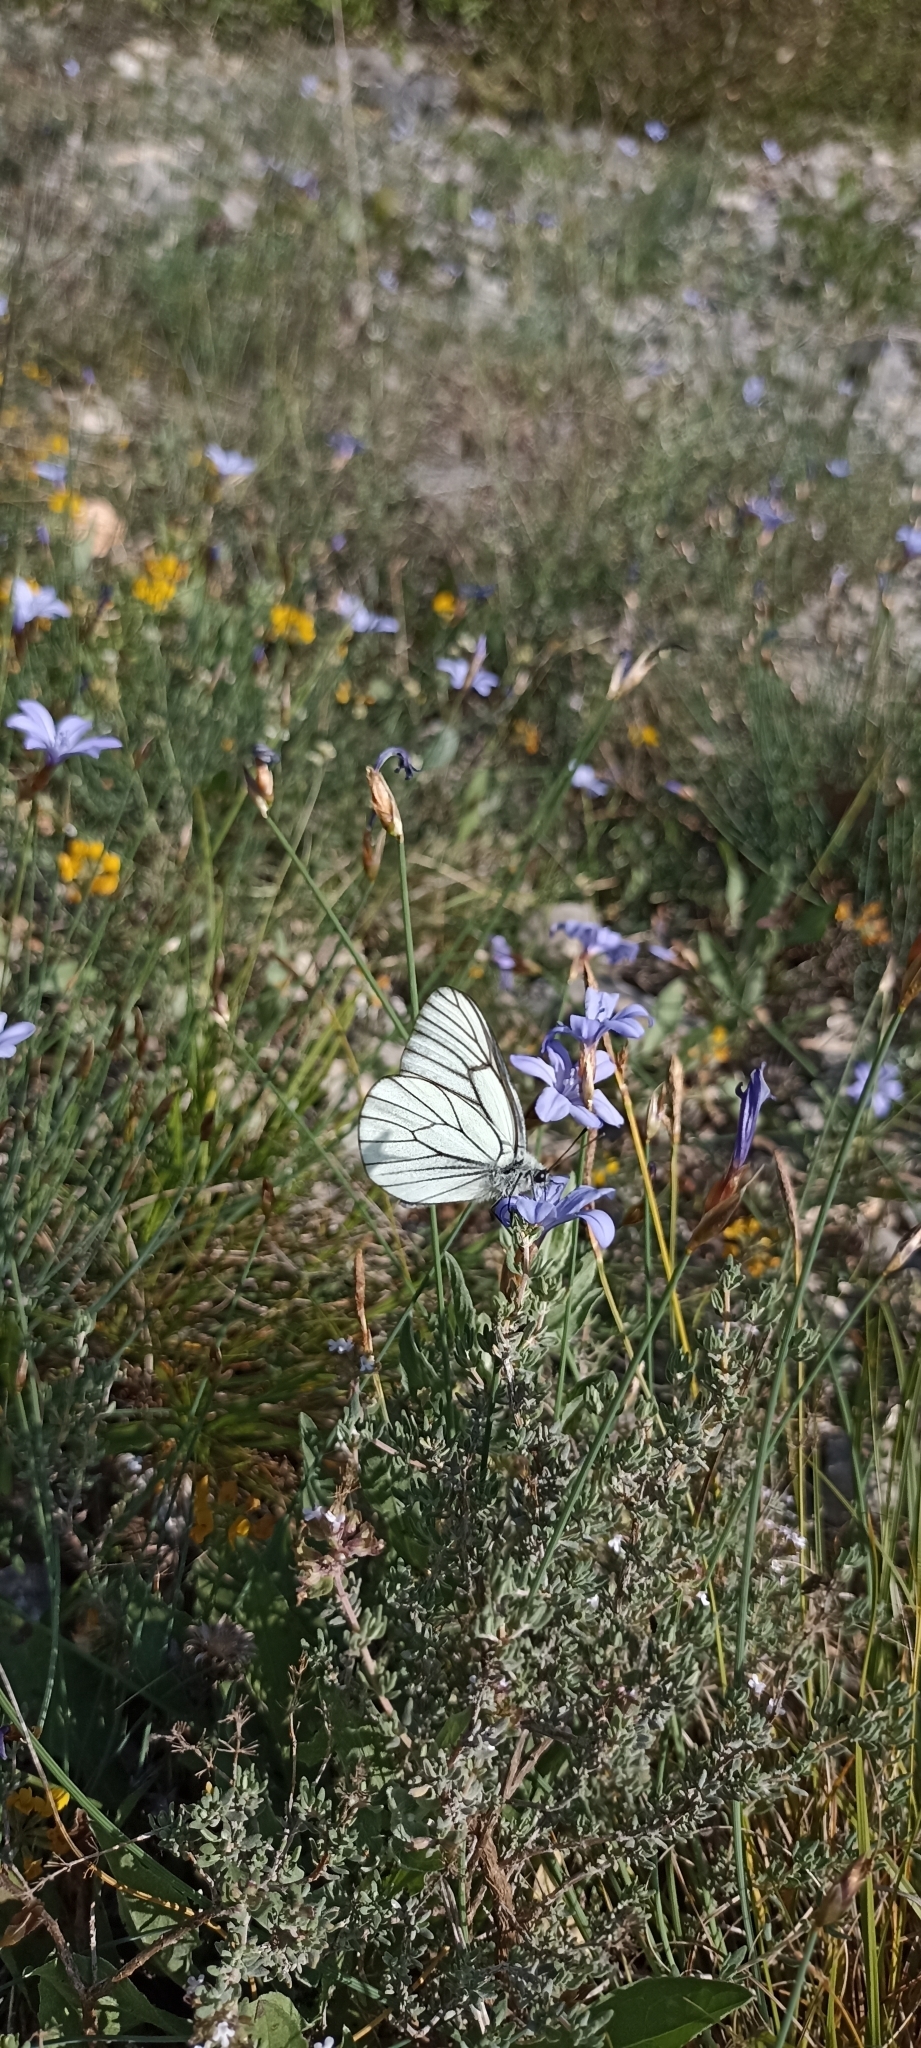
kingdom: Animalia
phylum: Arthropoda
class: Insecta
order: Lepidoptera
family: Pieridae
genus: Aporia
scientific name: Aporia crataegi
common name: Black-veined white
